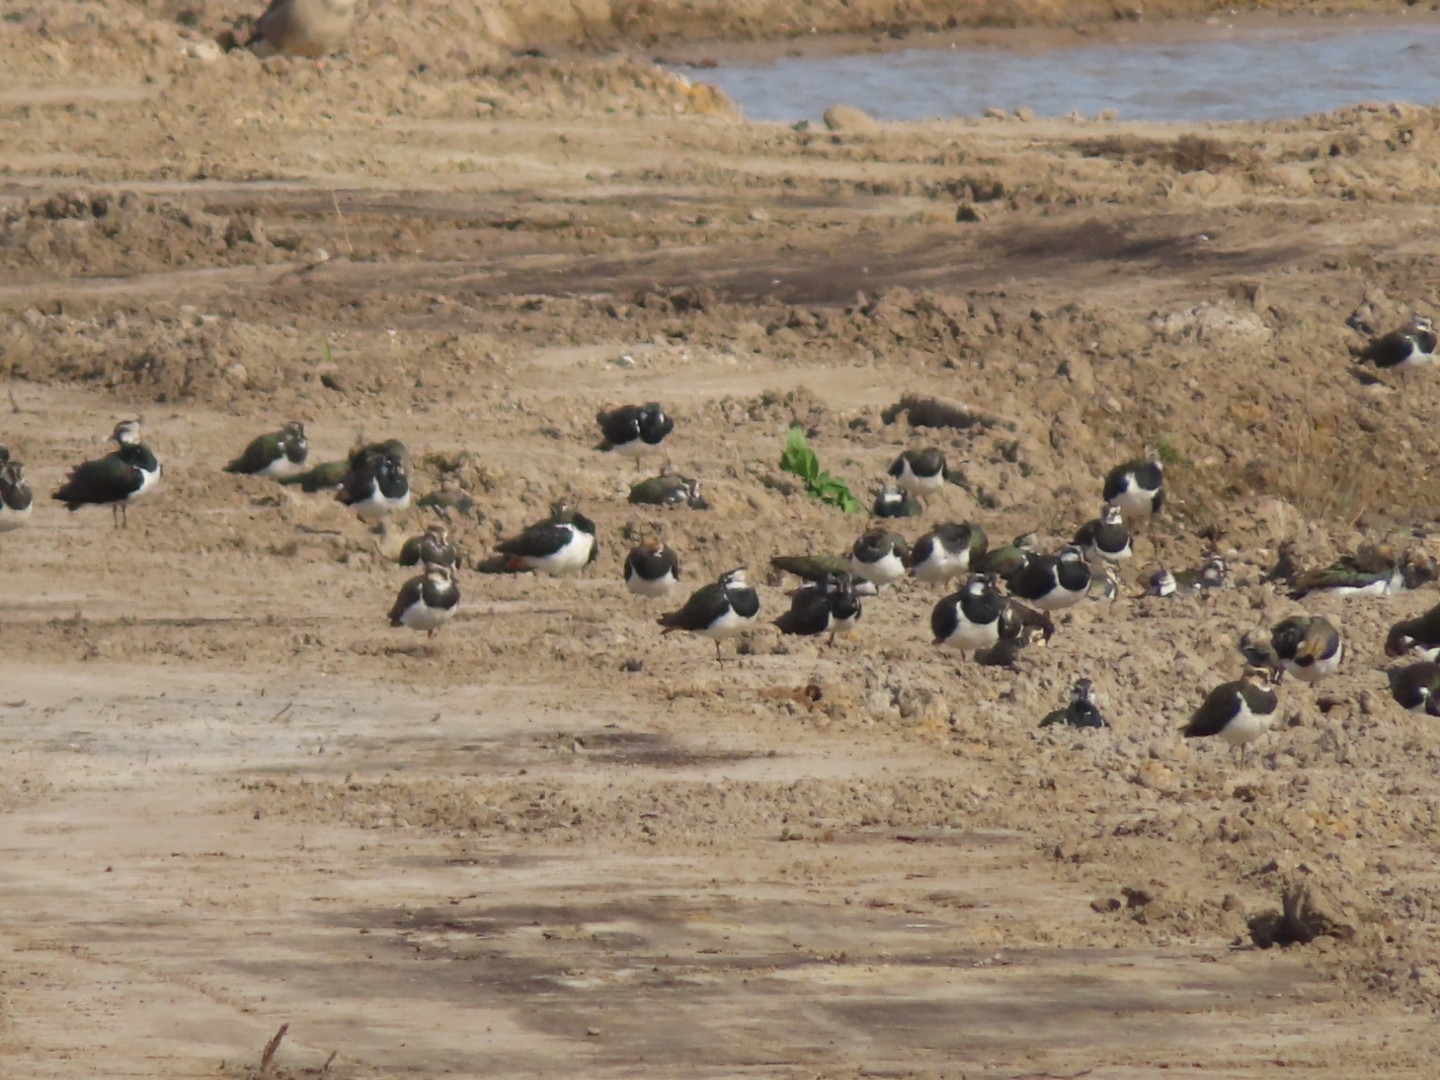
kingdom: Animalia
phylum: Chordata
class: Aves
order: Charadriiformes
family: Charadriidae
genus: Vanellus
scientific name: Vanellus vanellus
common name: Northern lapwing
